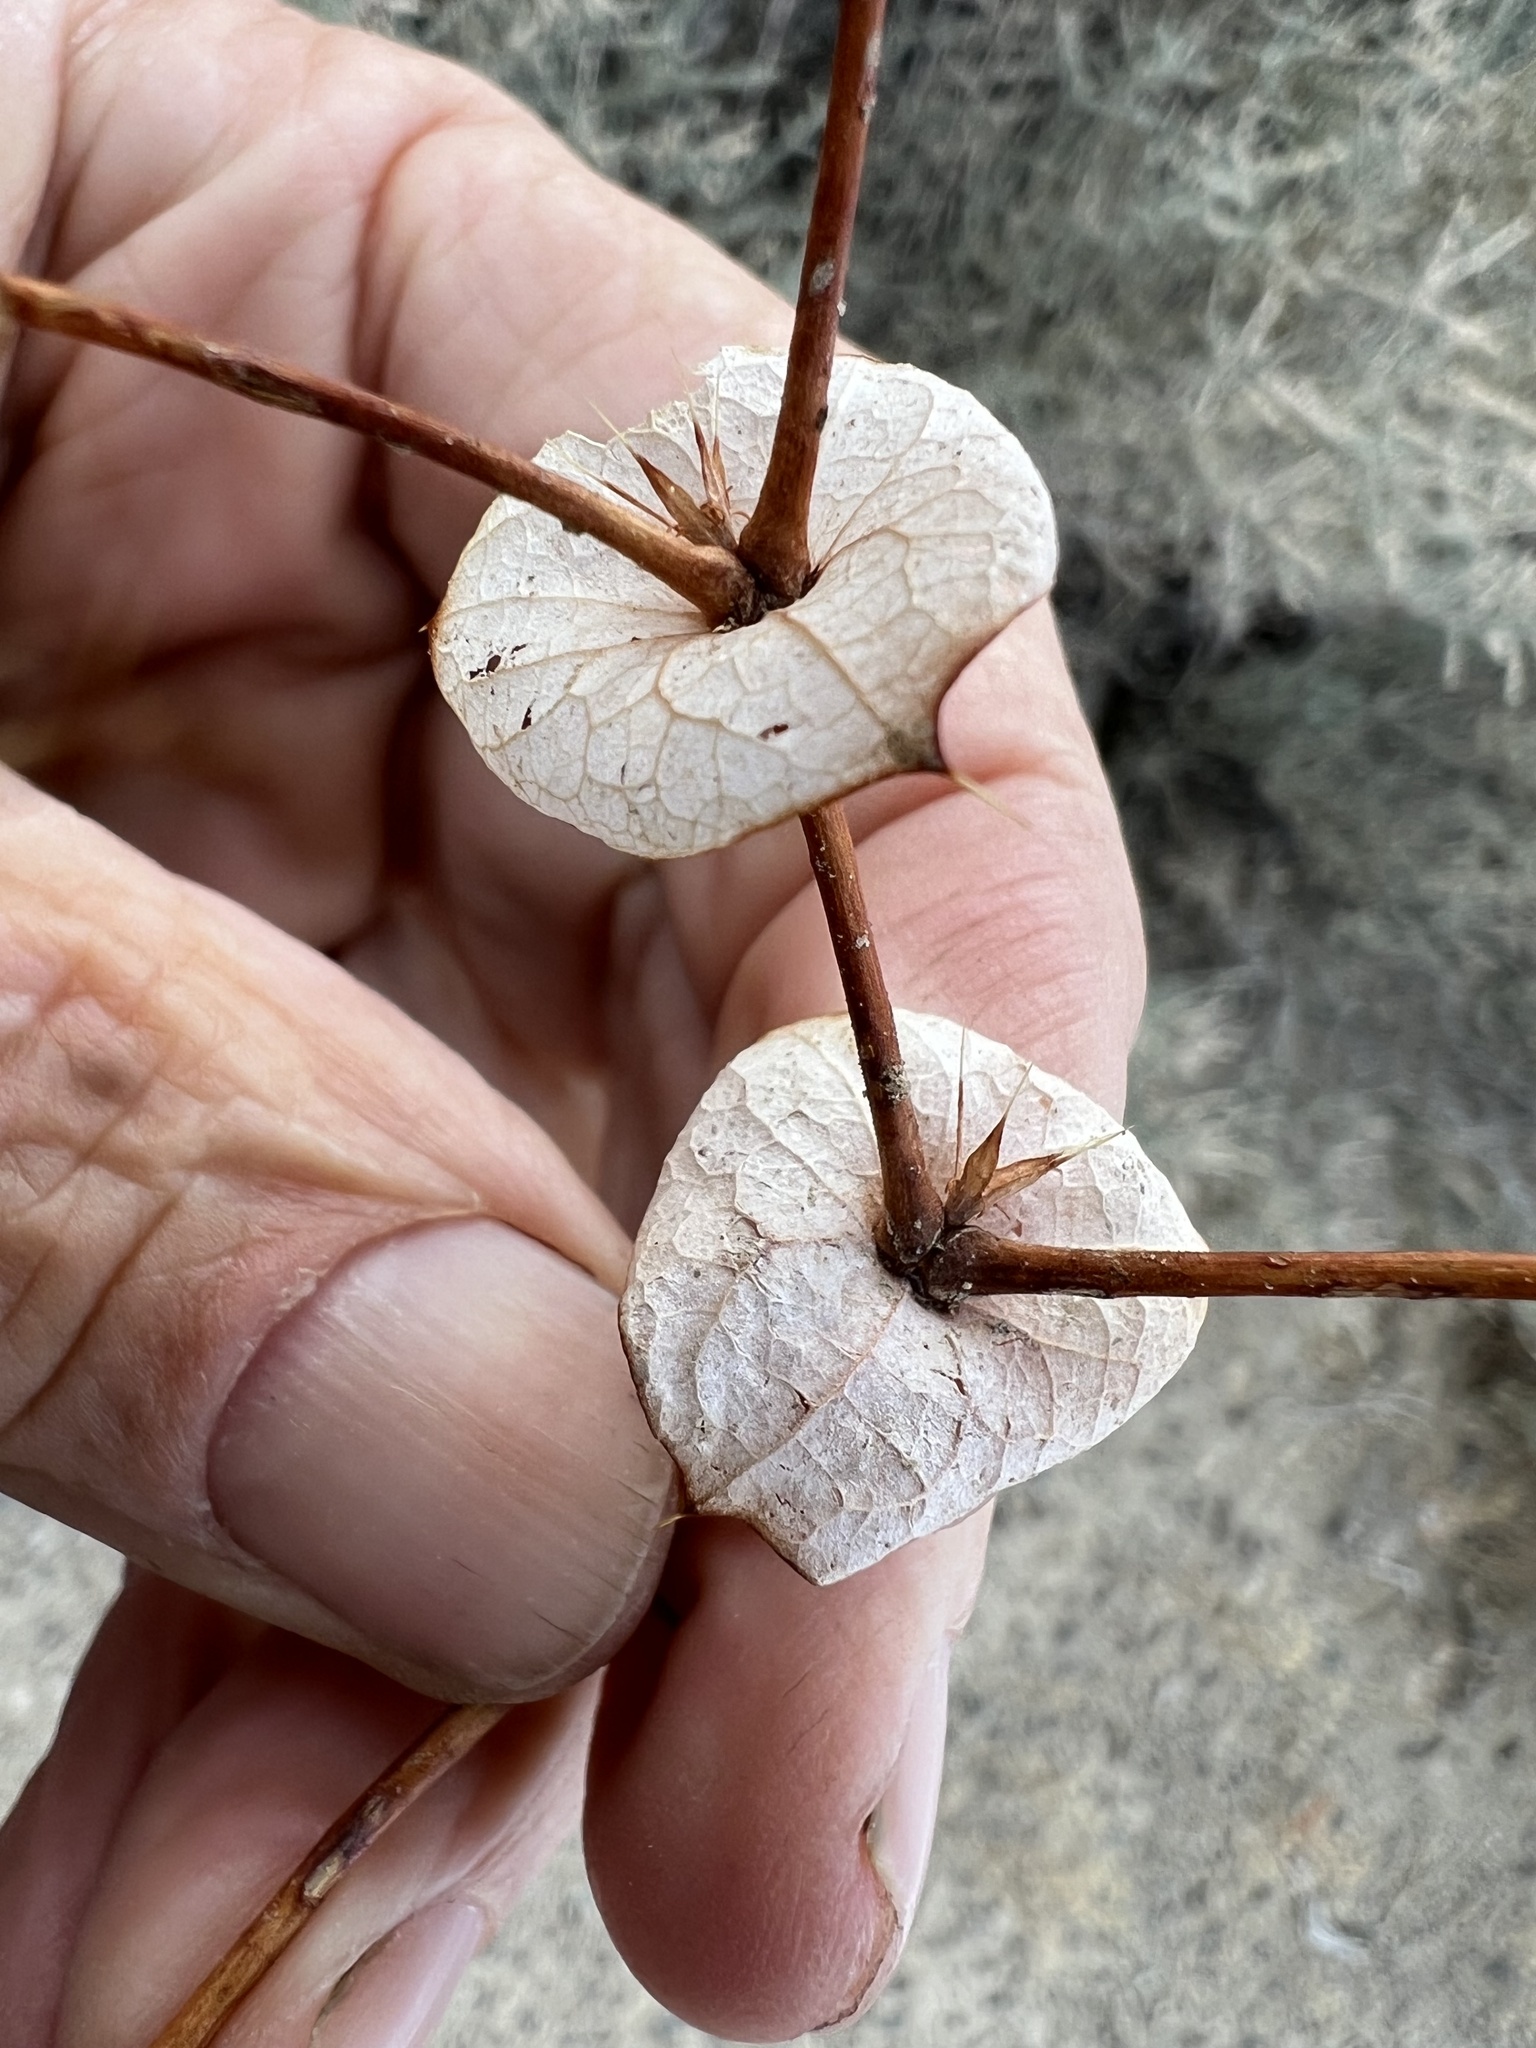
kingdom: Plantae
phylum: Tracheophyta
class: Magnoliopsida
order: Caryophyllales
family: Polygonaceae
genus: Oxytheca
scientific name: Oxytheca perfoliata
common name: Round-leaf puncturebract
